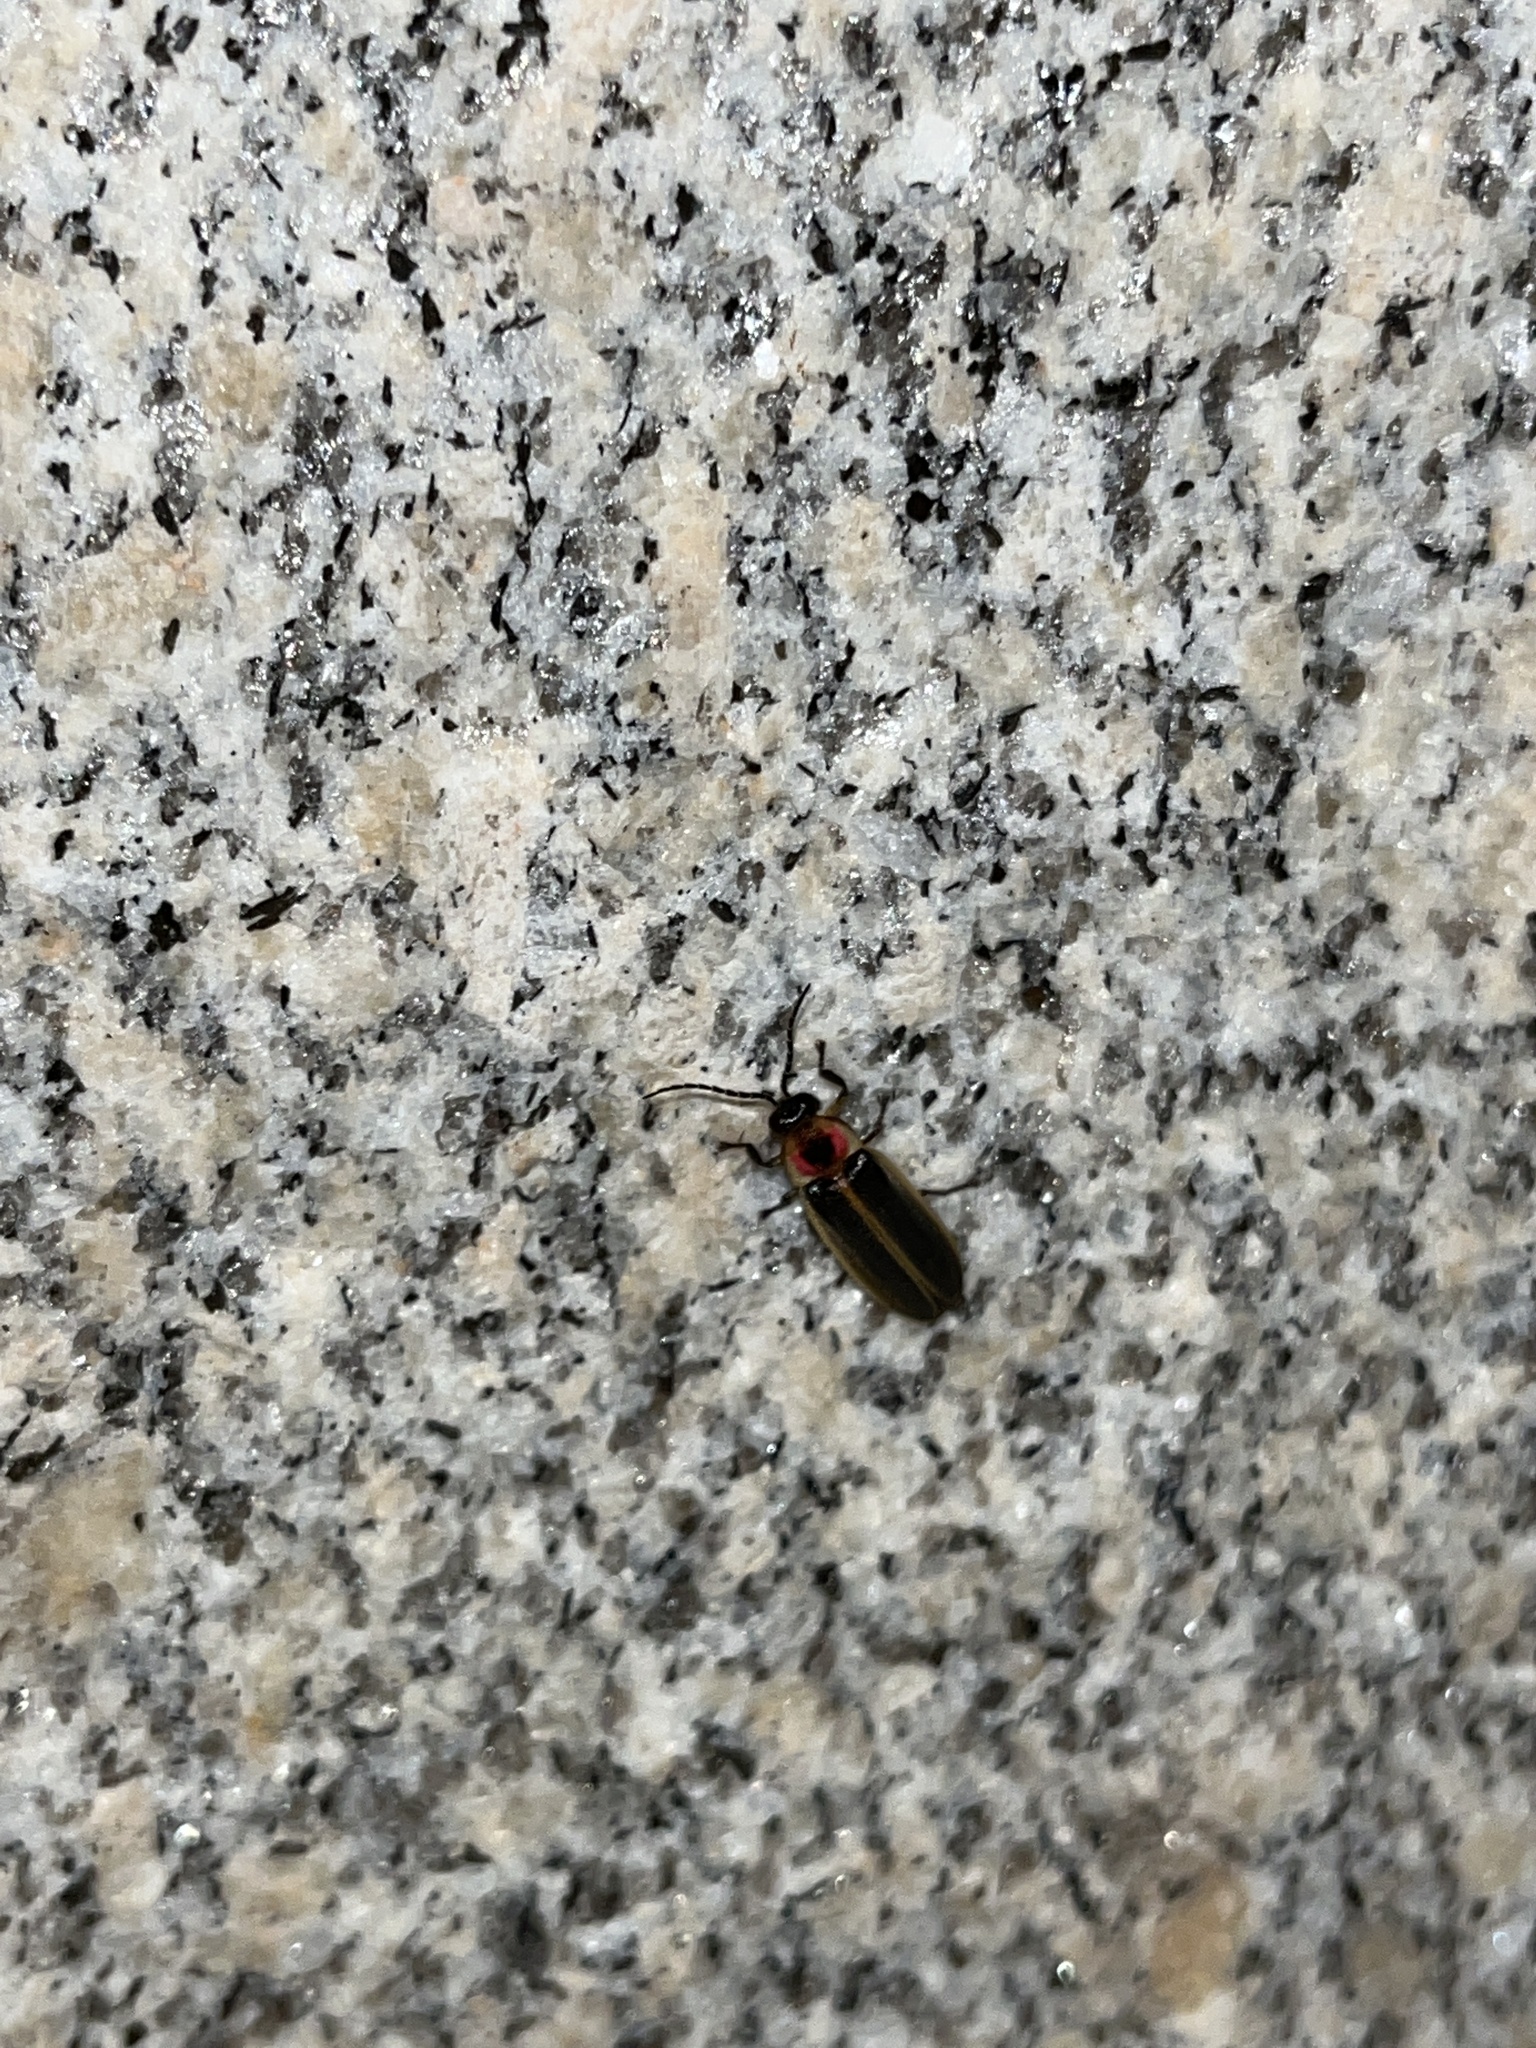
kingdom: Animalia
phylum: Arthropoda
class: Insecta
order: Coleoptera
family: Lampyridae
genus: Photinus
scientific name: Photinus pyralis
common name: Big dipper firefly
